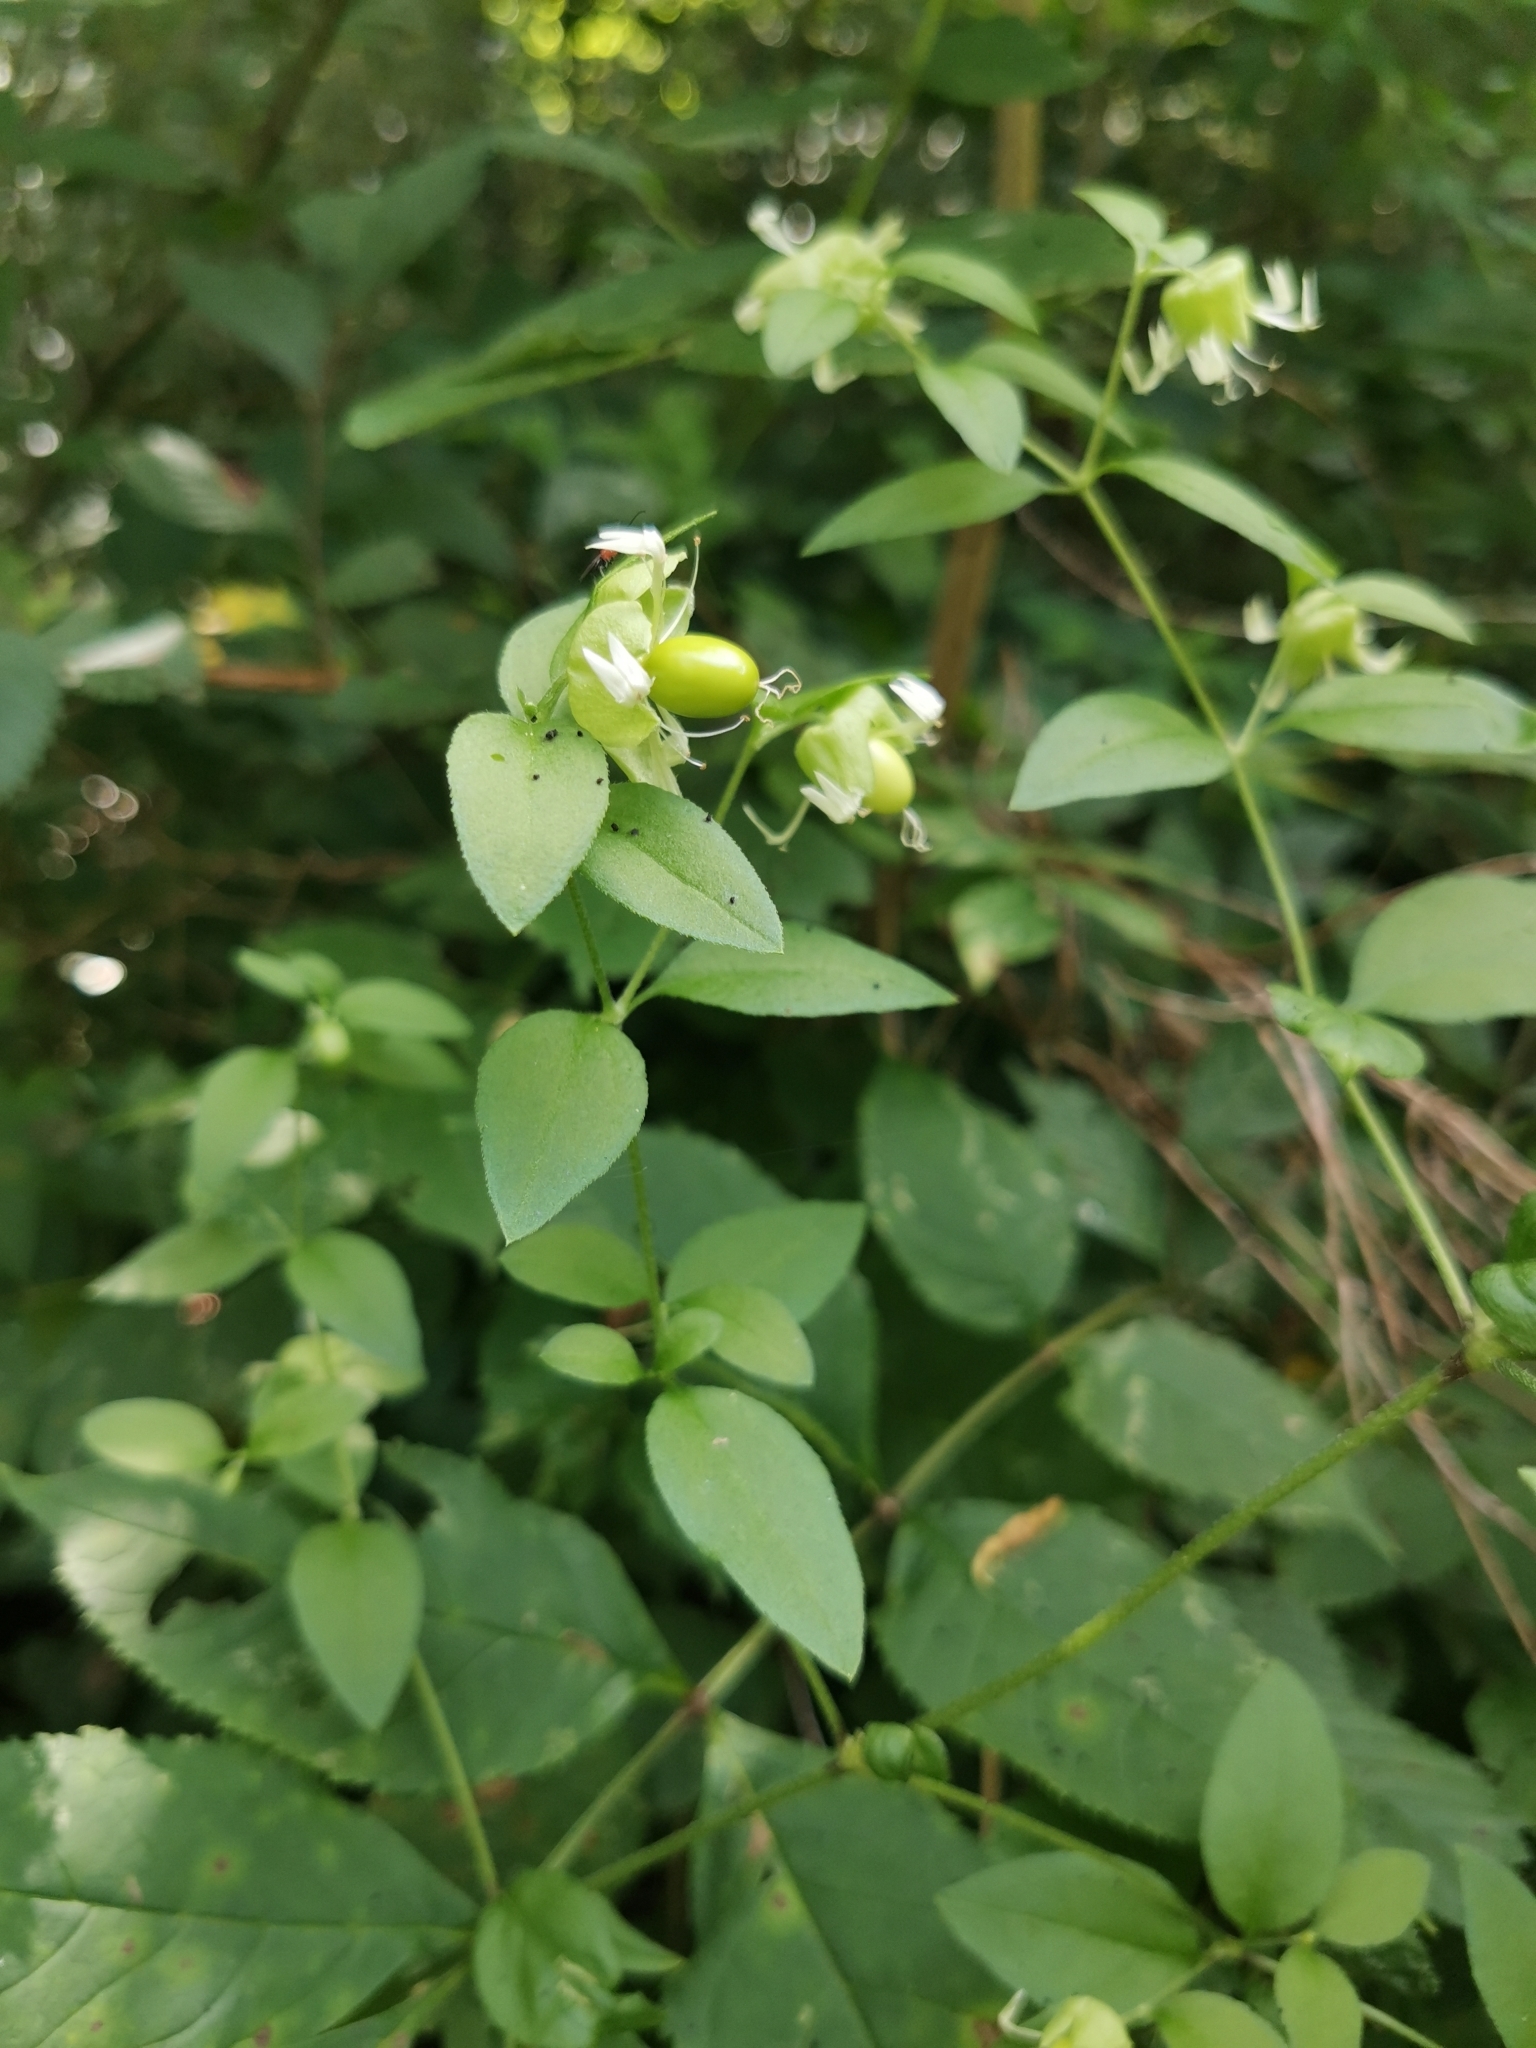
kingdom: Plantae
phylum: Tracheophyta
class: Magnoliopsida
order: Caryophyllales
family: Caryophyllaceae
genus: Silene
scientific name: Silene baccifera
